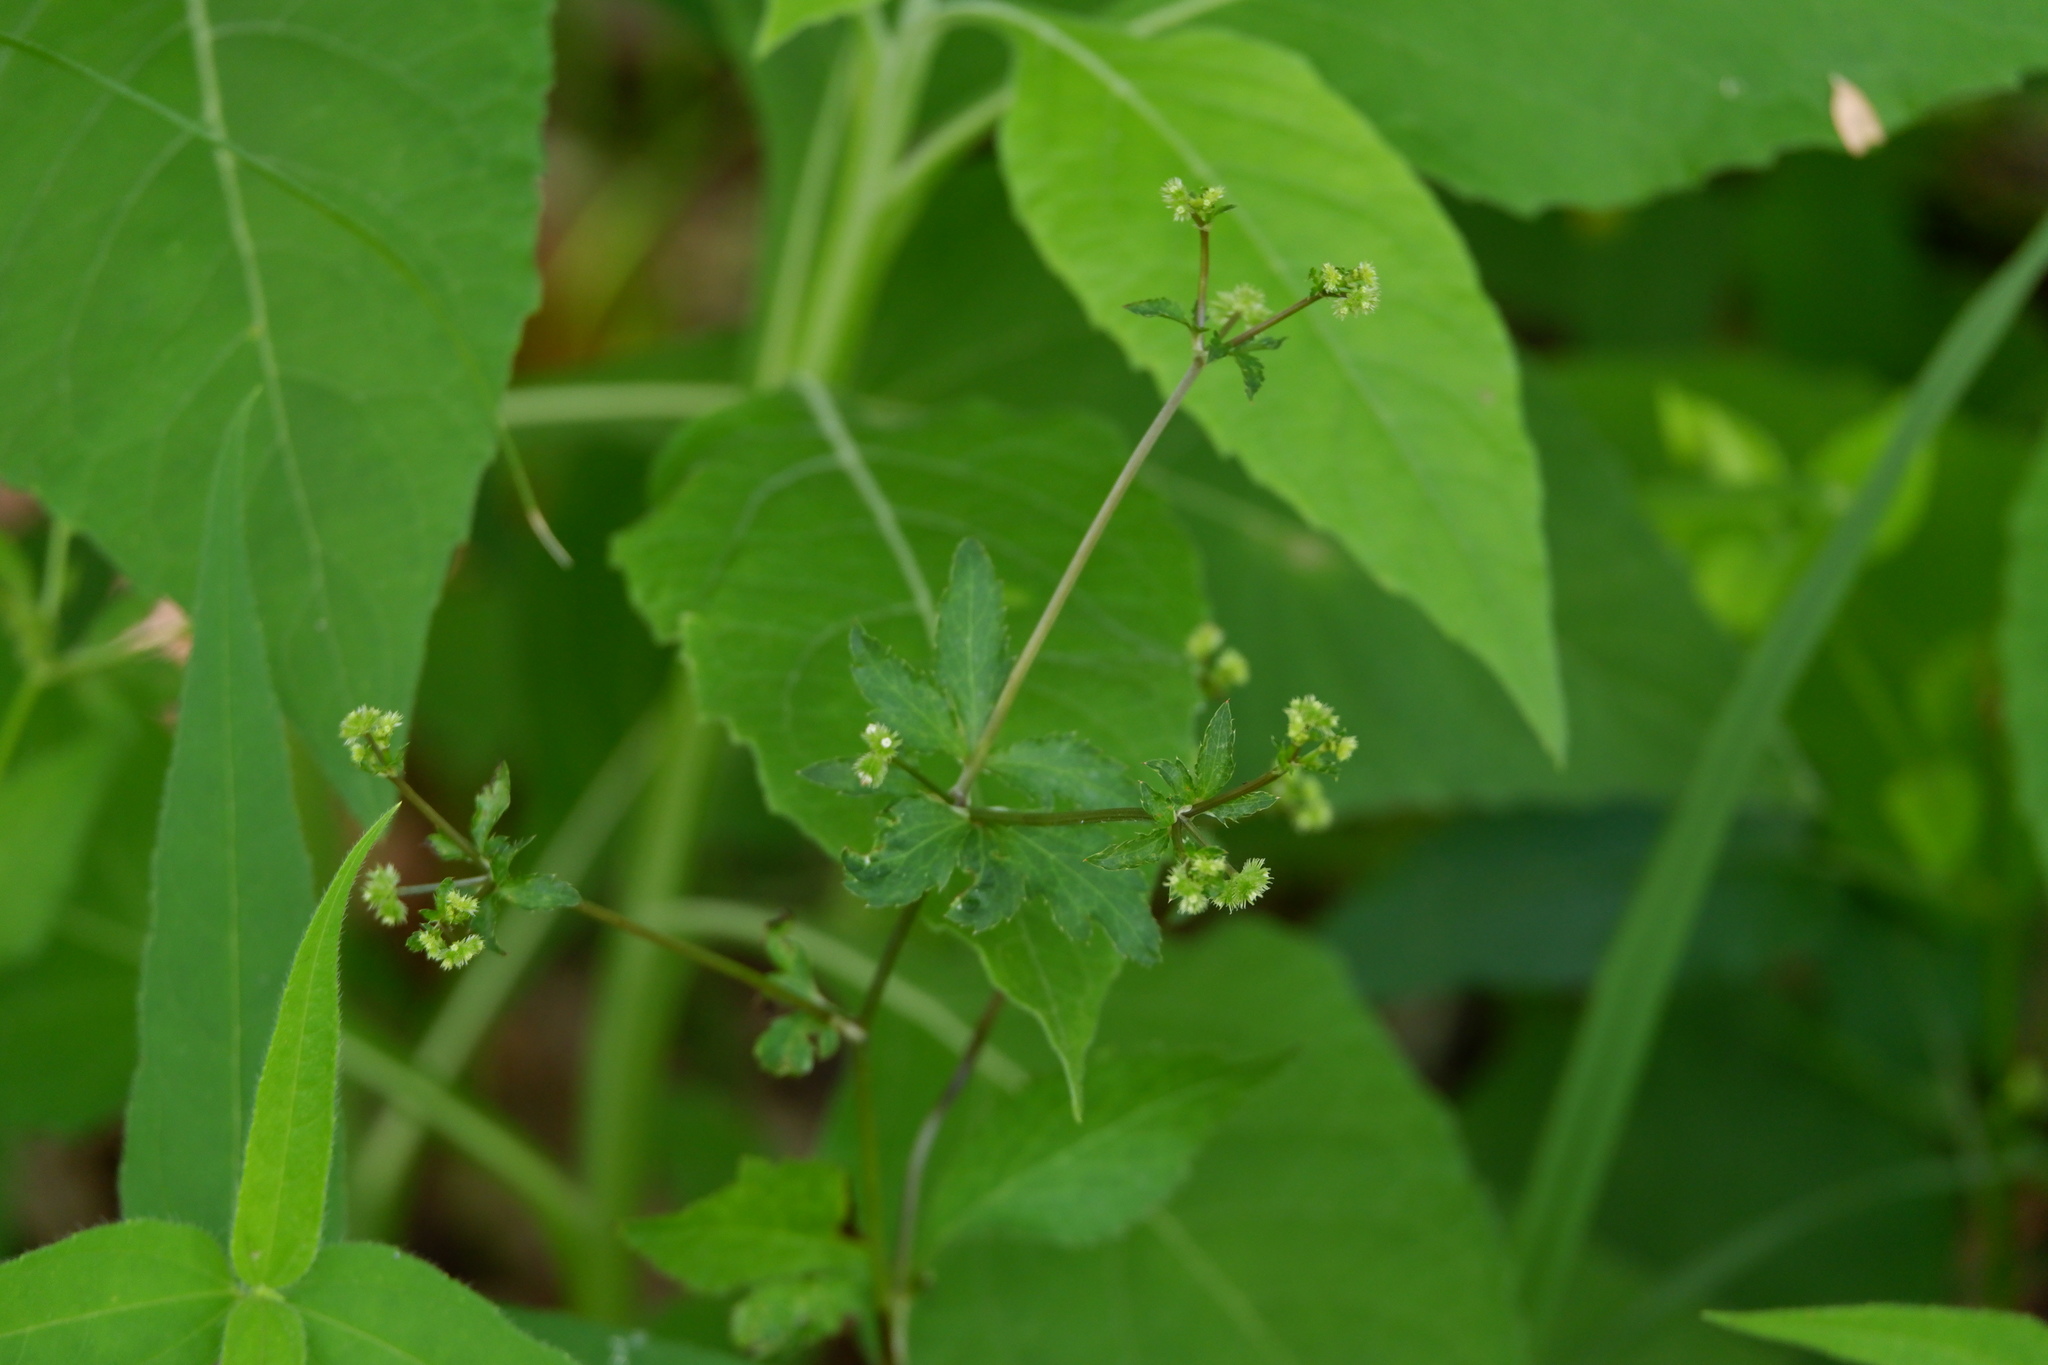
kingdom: Plantae
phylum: Tracheophyta
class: Magnoliopsida
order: Apiales
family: Apiaceae
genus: Sanicula
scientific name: Sanicula canadensis
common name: Canada sanicle
